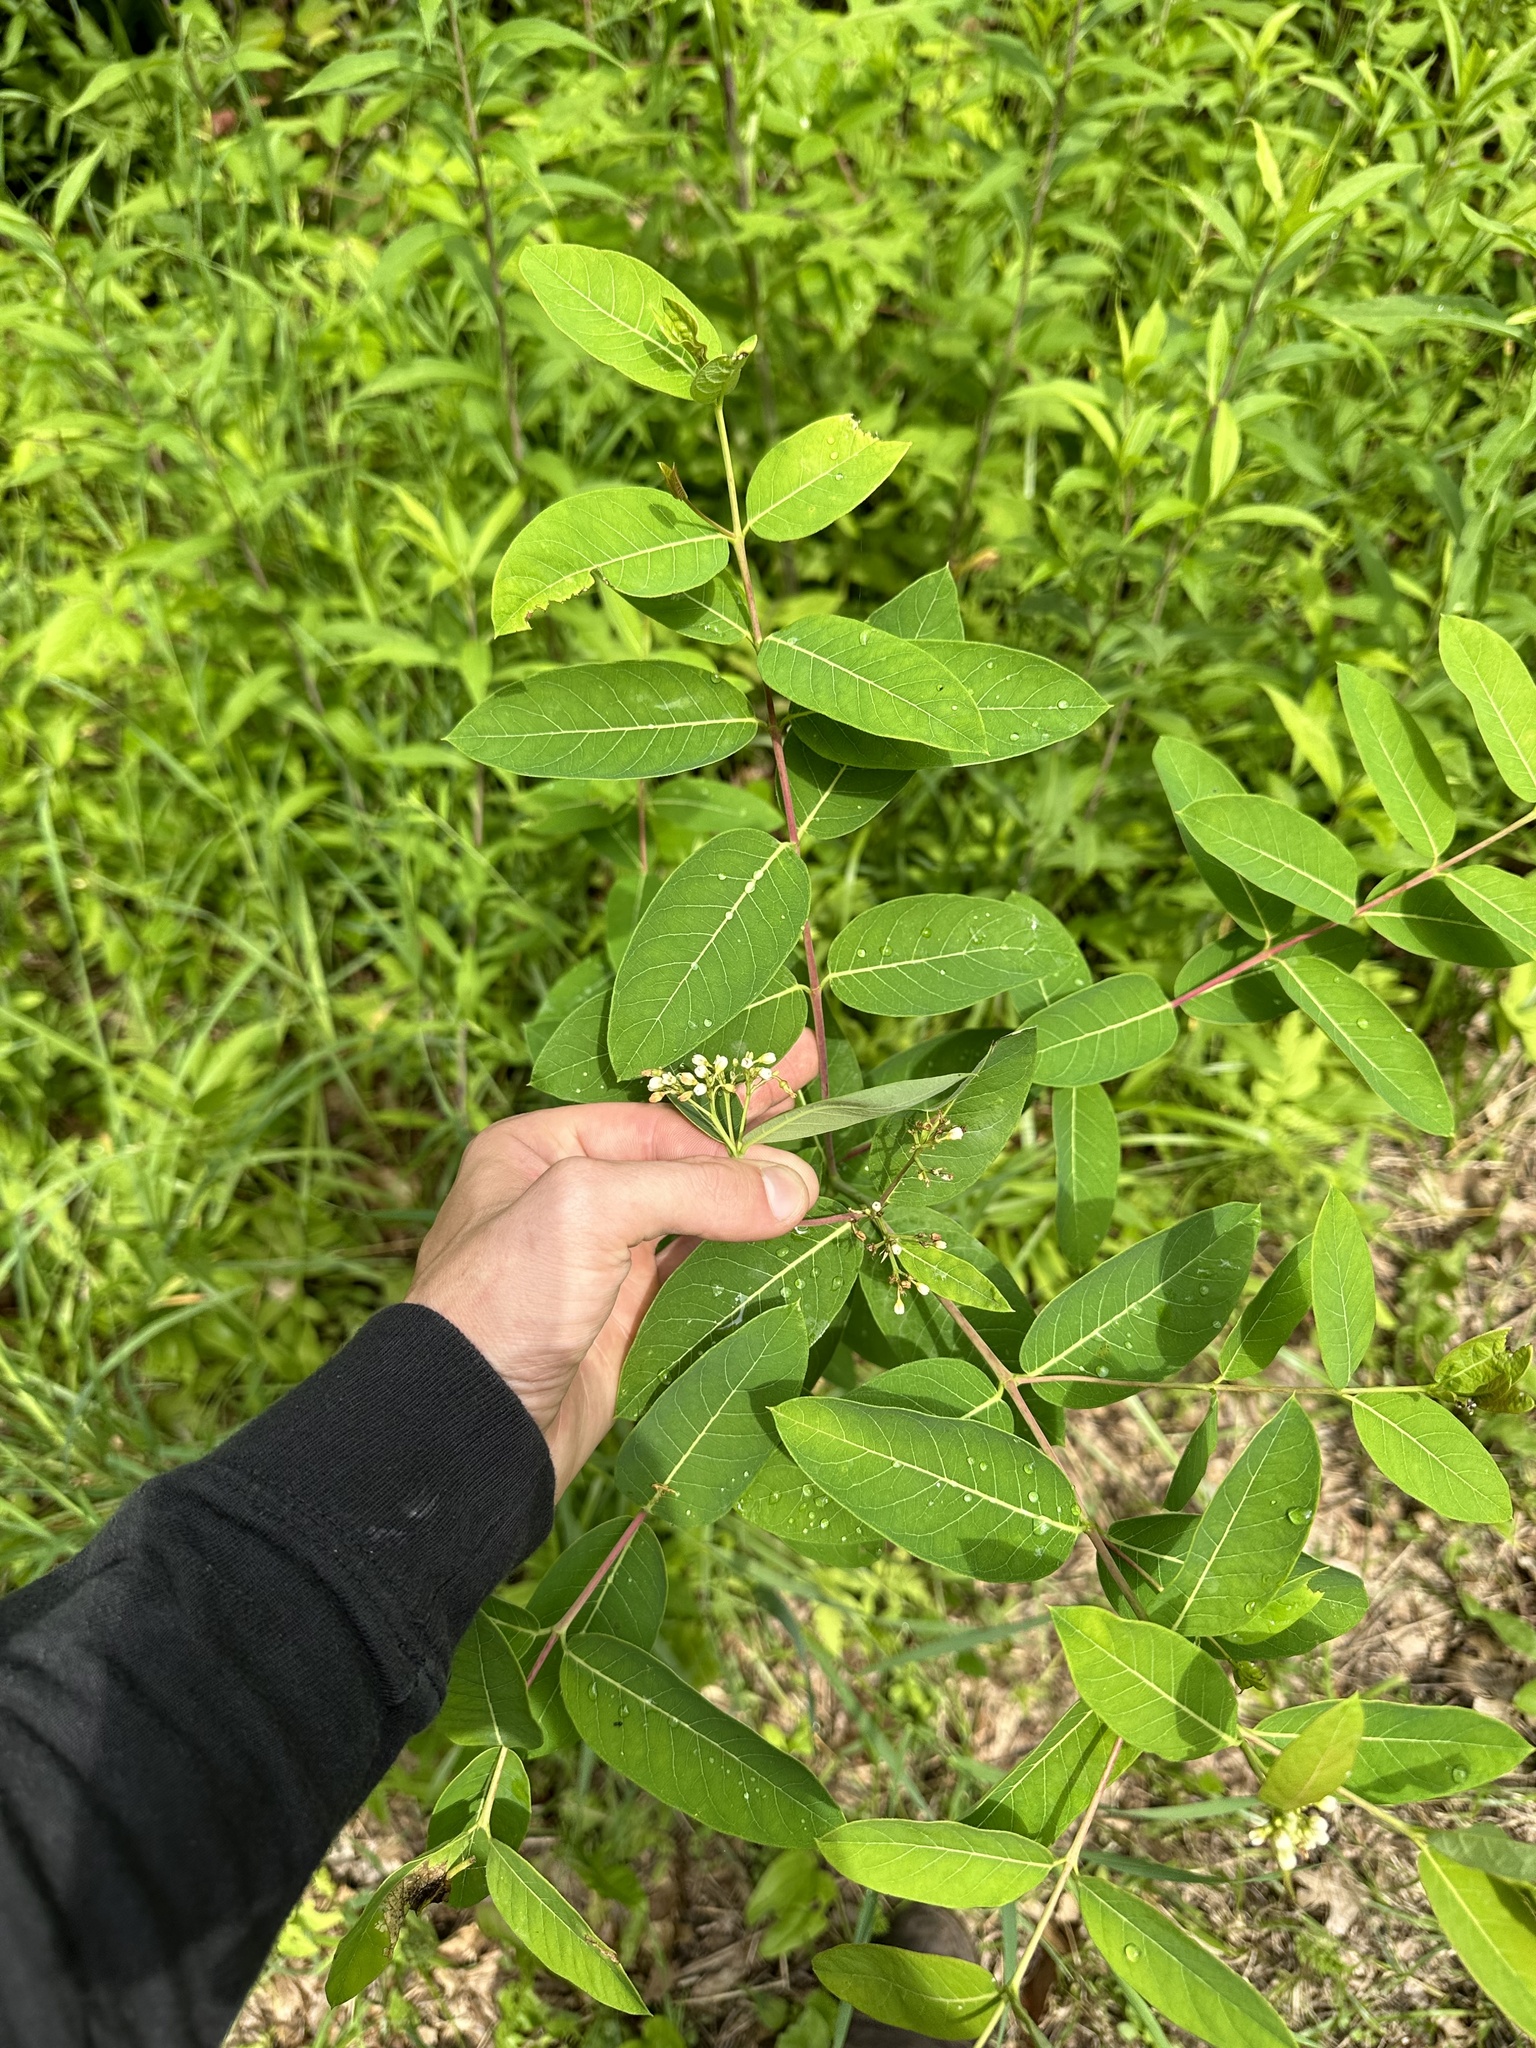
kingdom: Plantae
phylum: Tracheophyta
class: Magnoliopsida
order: Gentianales
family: Apocynaceae
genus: Apocynum
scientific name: Apocynum cannabinum
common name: Hemp dogbane
